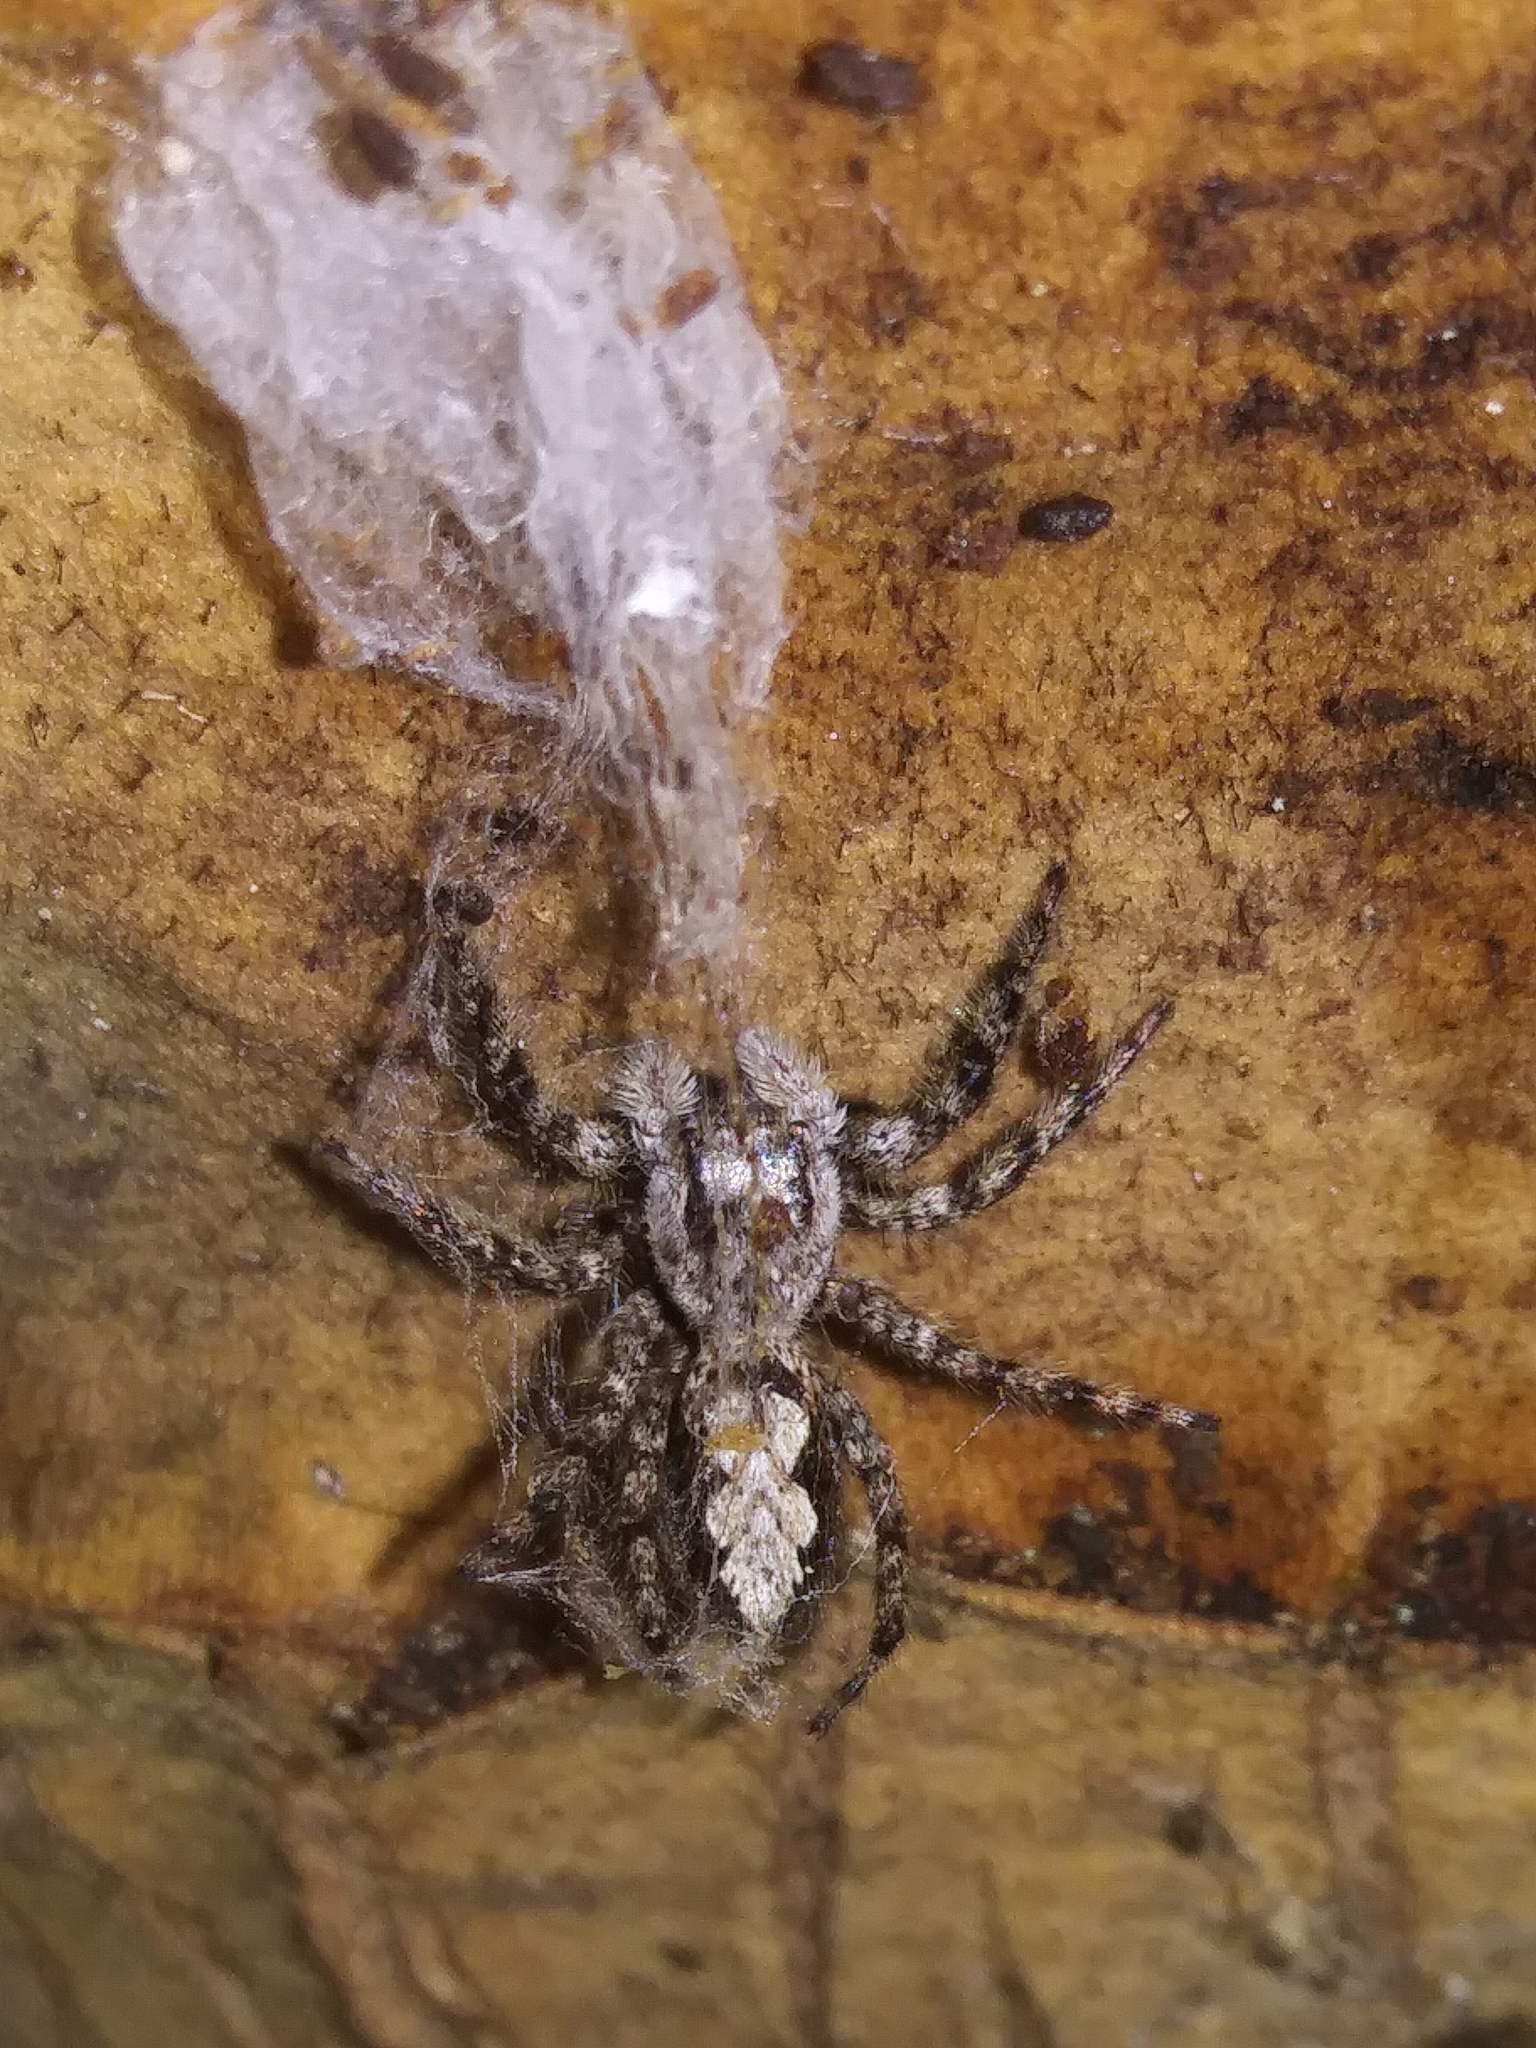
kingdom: Animalia
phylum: Arthropoda
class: Arachnida
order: Araneae
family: Salticidae
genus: Platycryptus
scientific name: Platycryptus undatus
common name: Tan jumping spider
